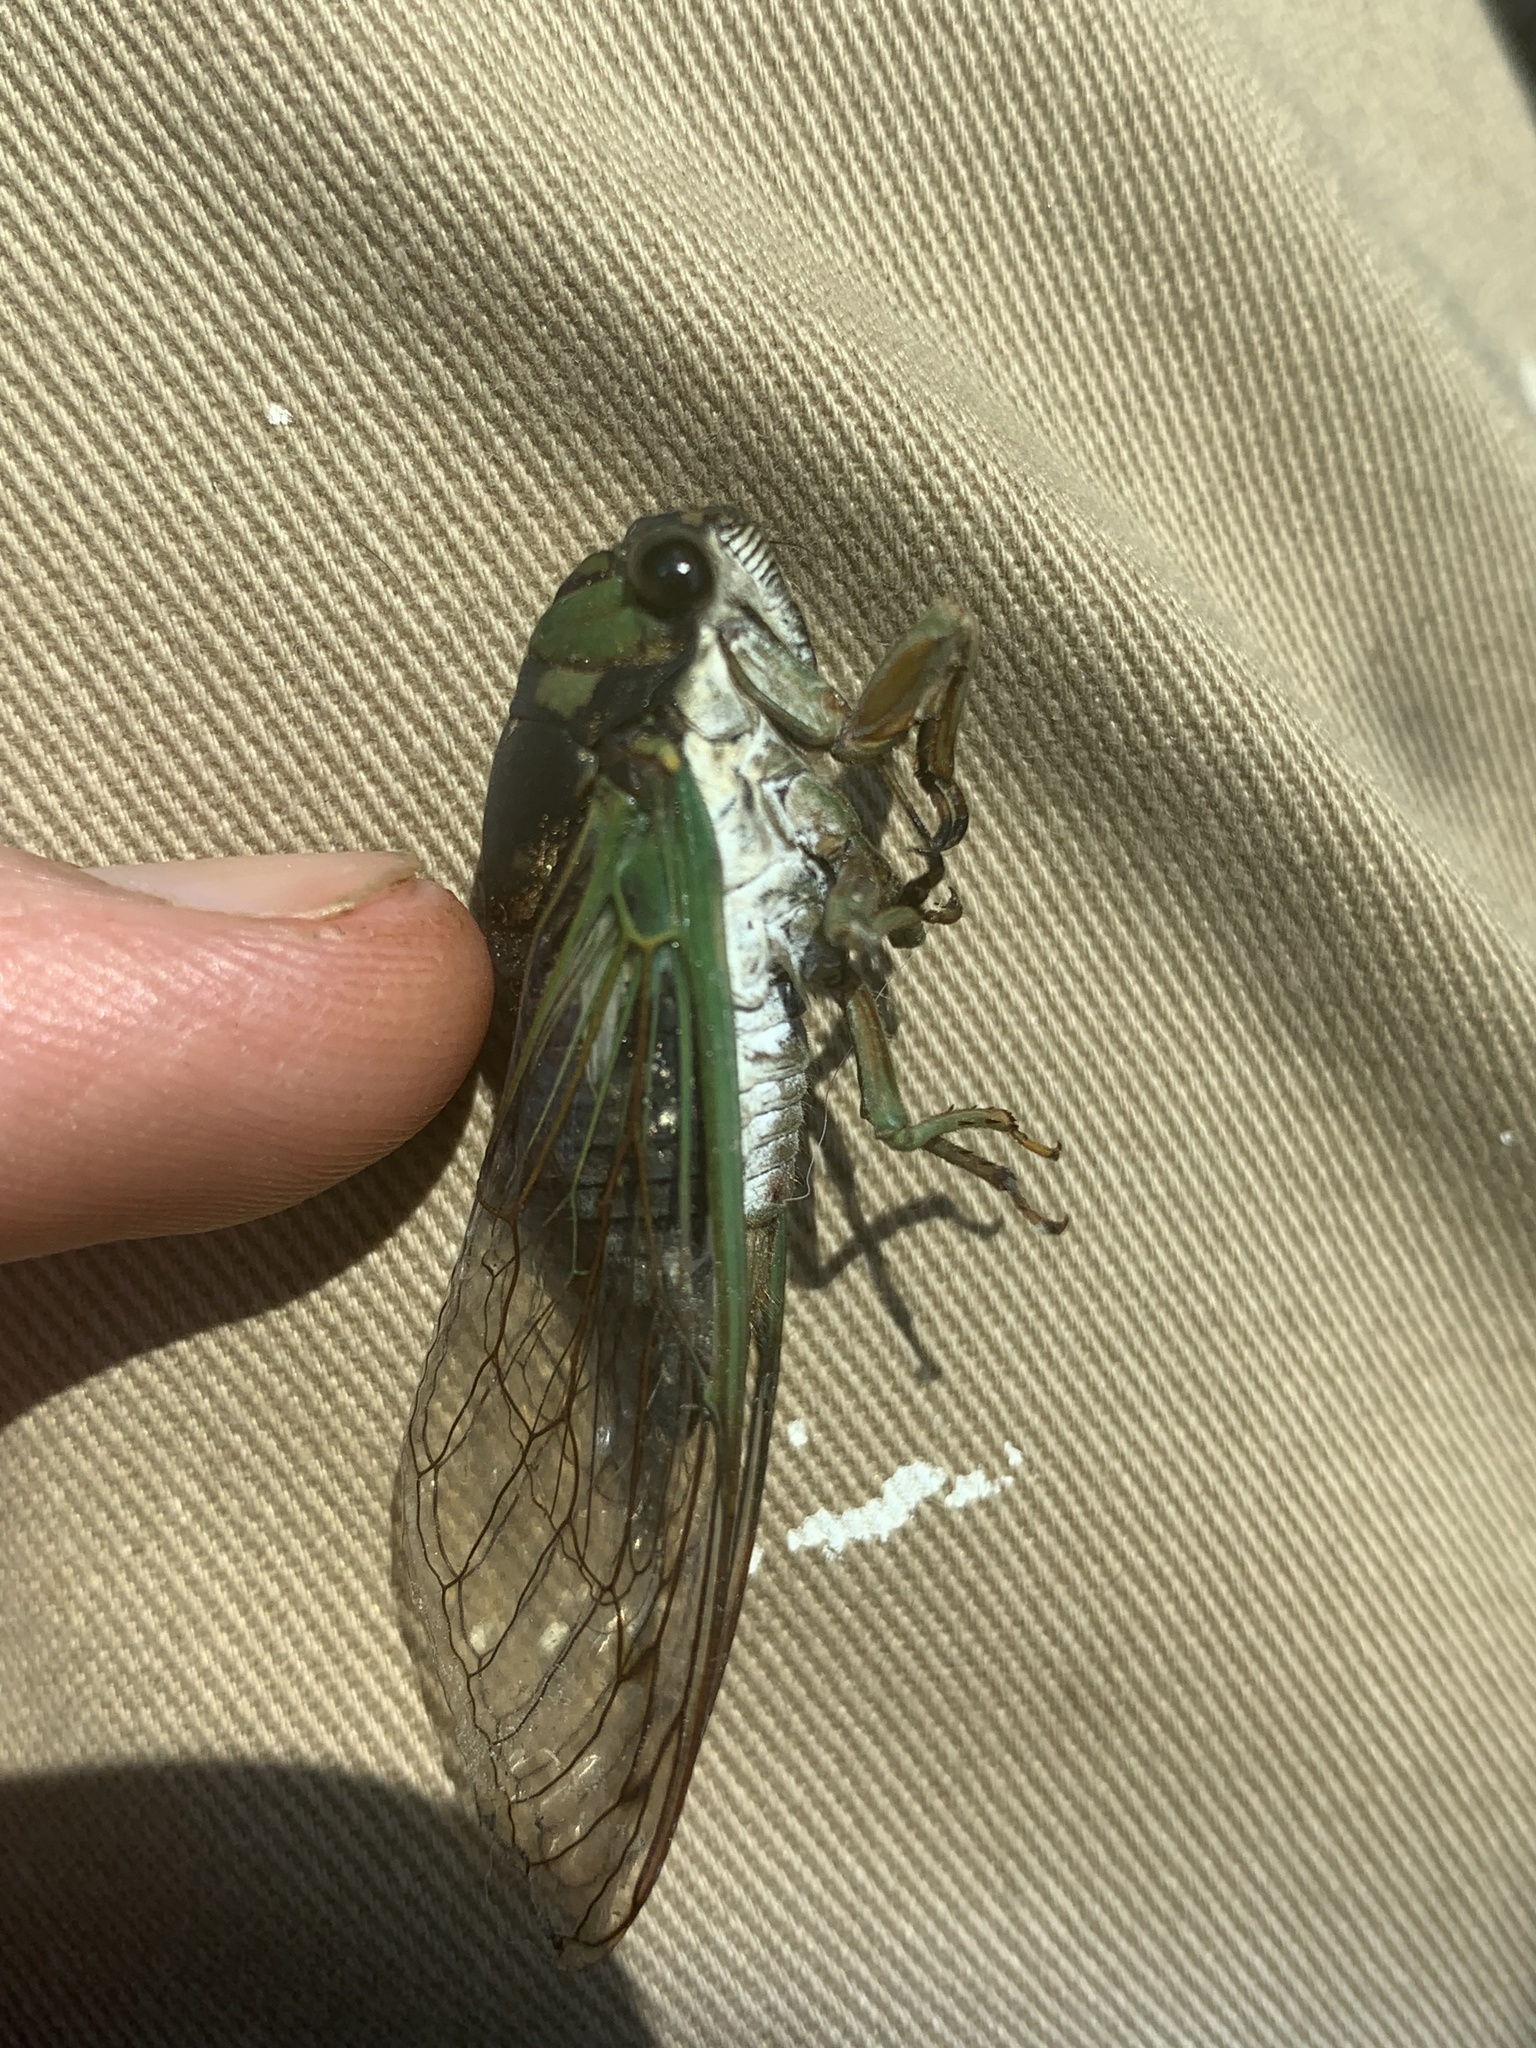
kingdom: Animalia
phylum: Arthropoda
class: Insecta
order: Hemiptera
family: Cicadidae
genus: Neotibicen
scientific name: Neotibicen tibicen
